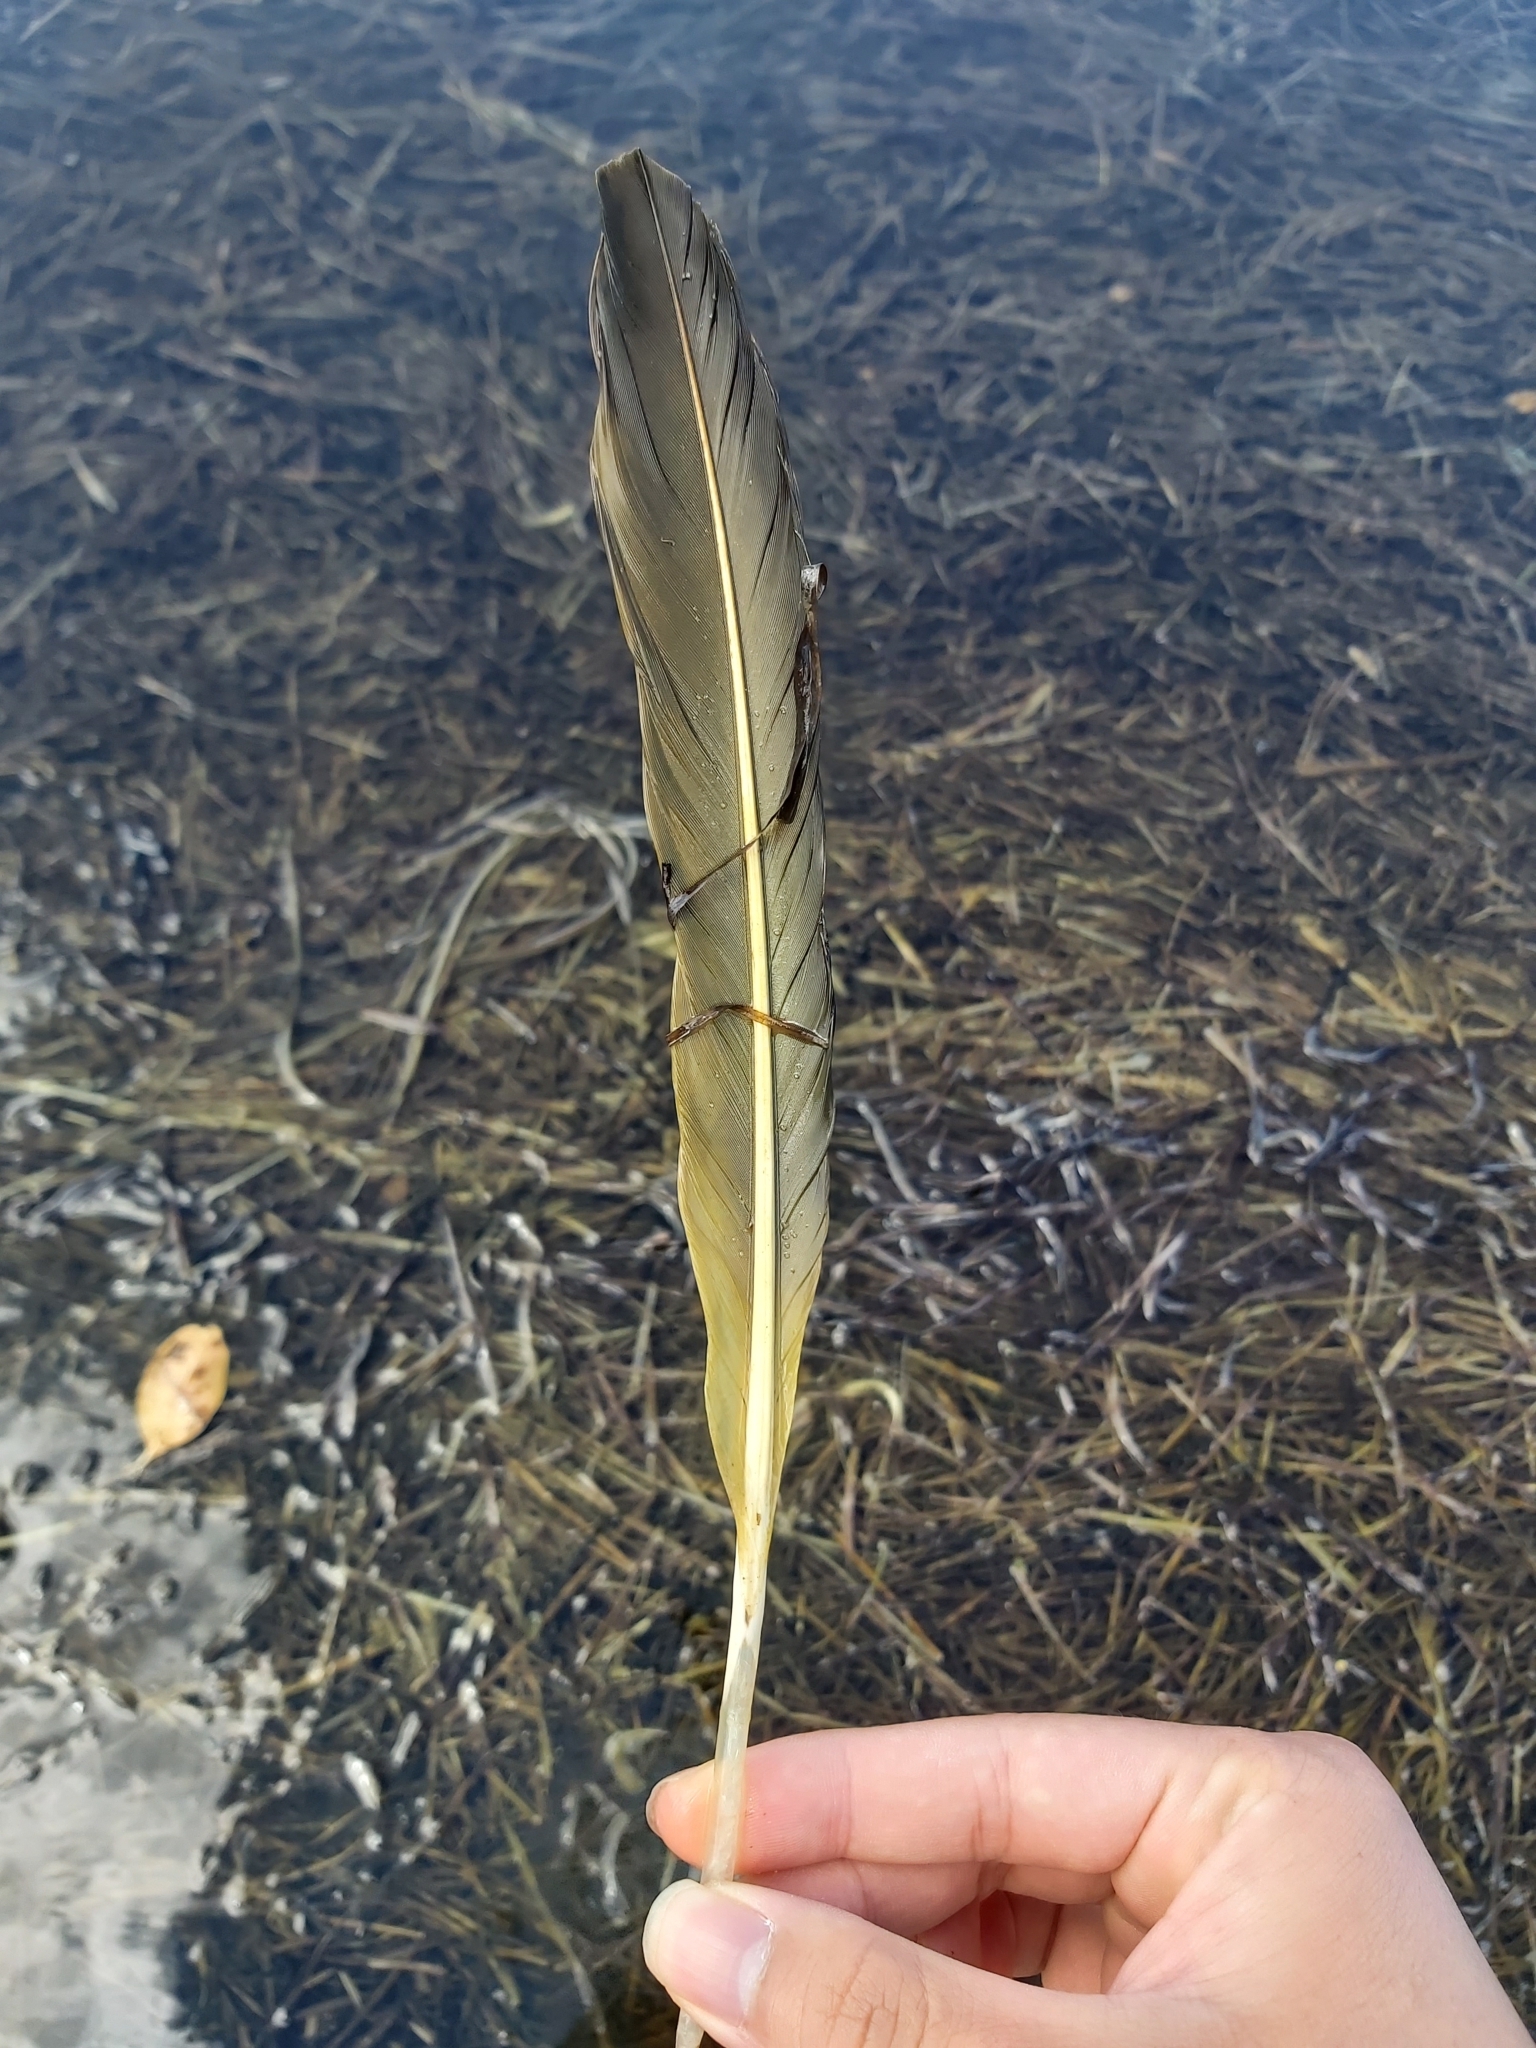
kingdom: Animalia
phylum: Chordata
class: Aves
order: Pelecaniformes
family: Pelecanidae
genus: Pelecanus
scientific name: Pelecanus conspicillatus
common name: Australian pelican
